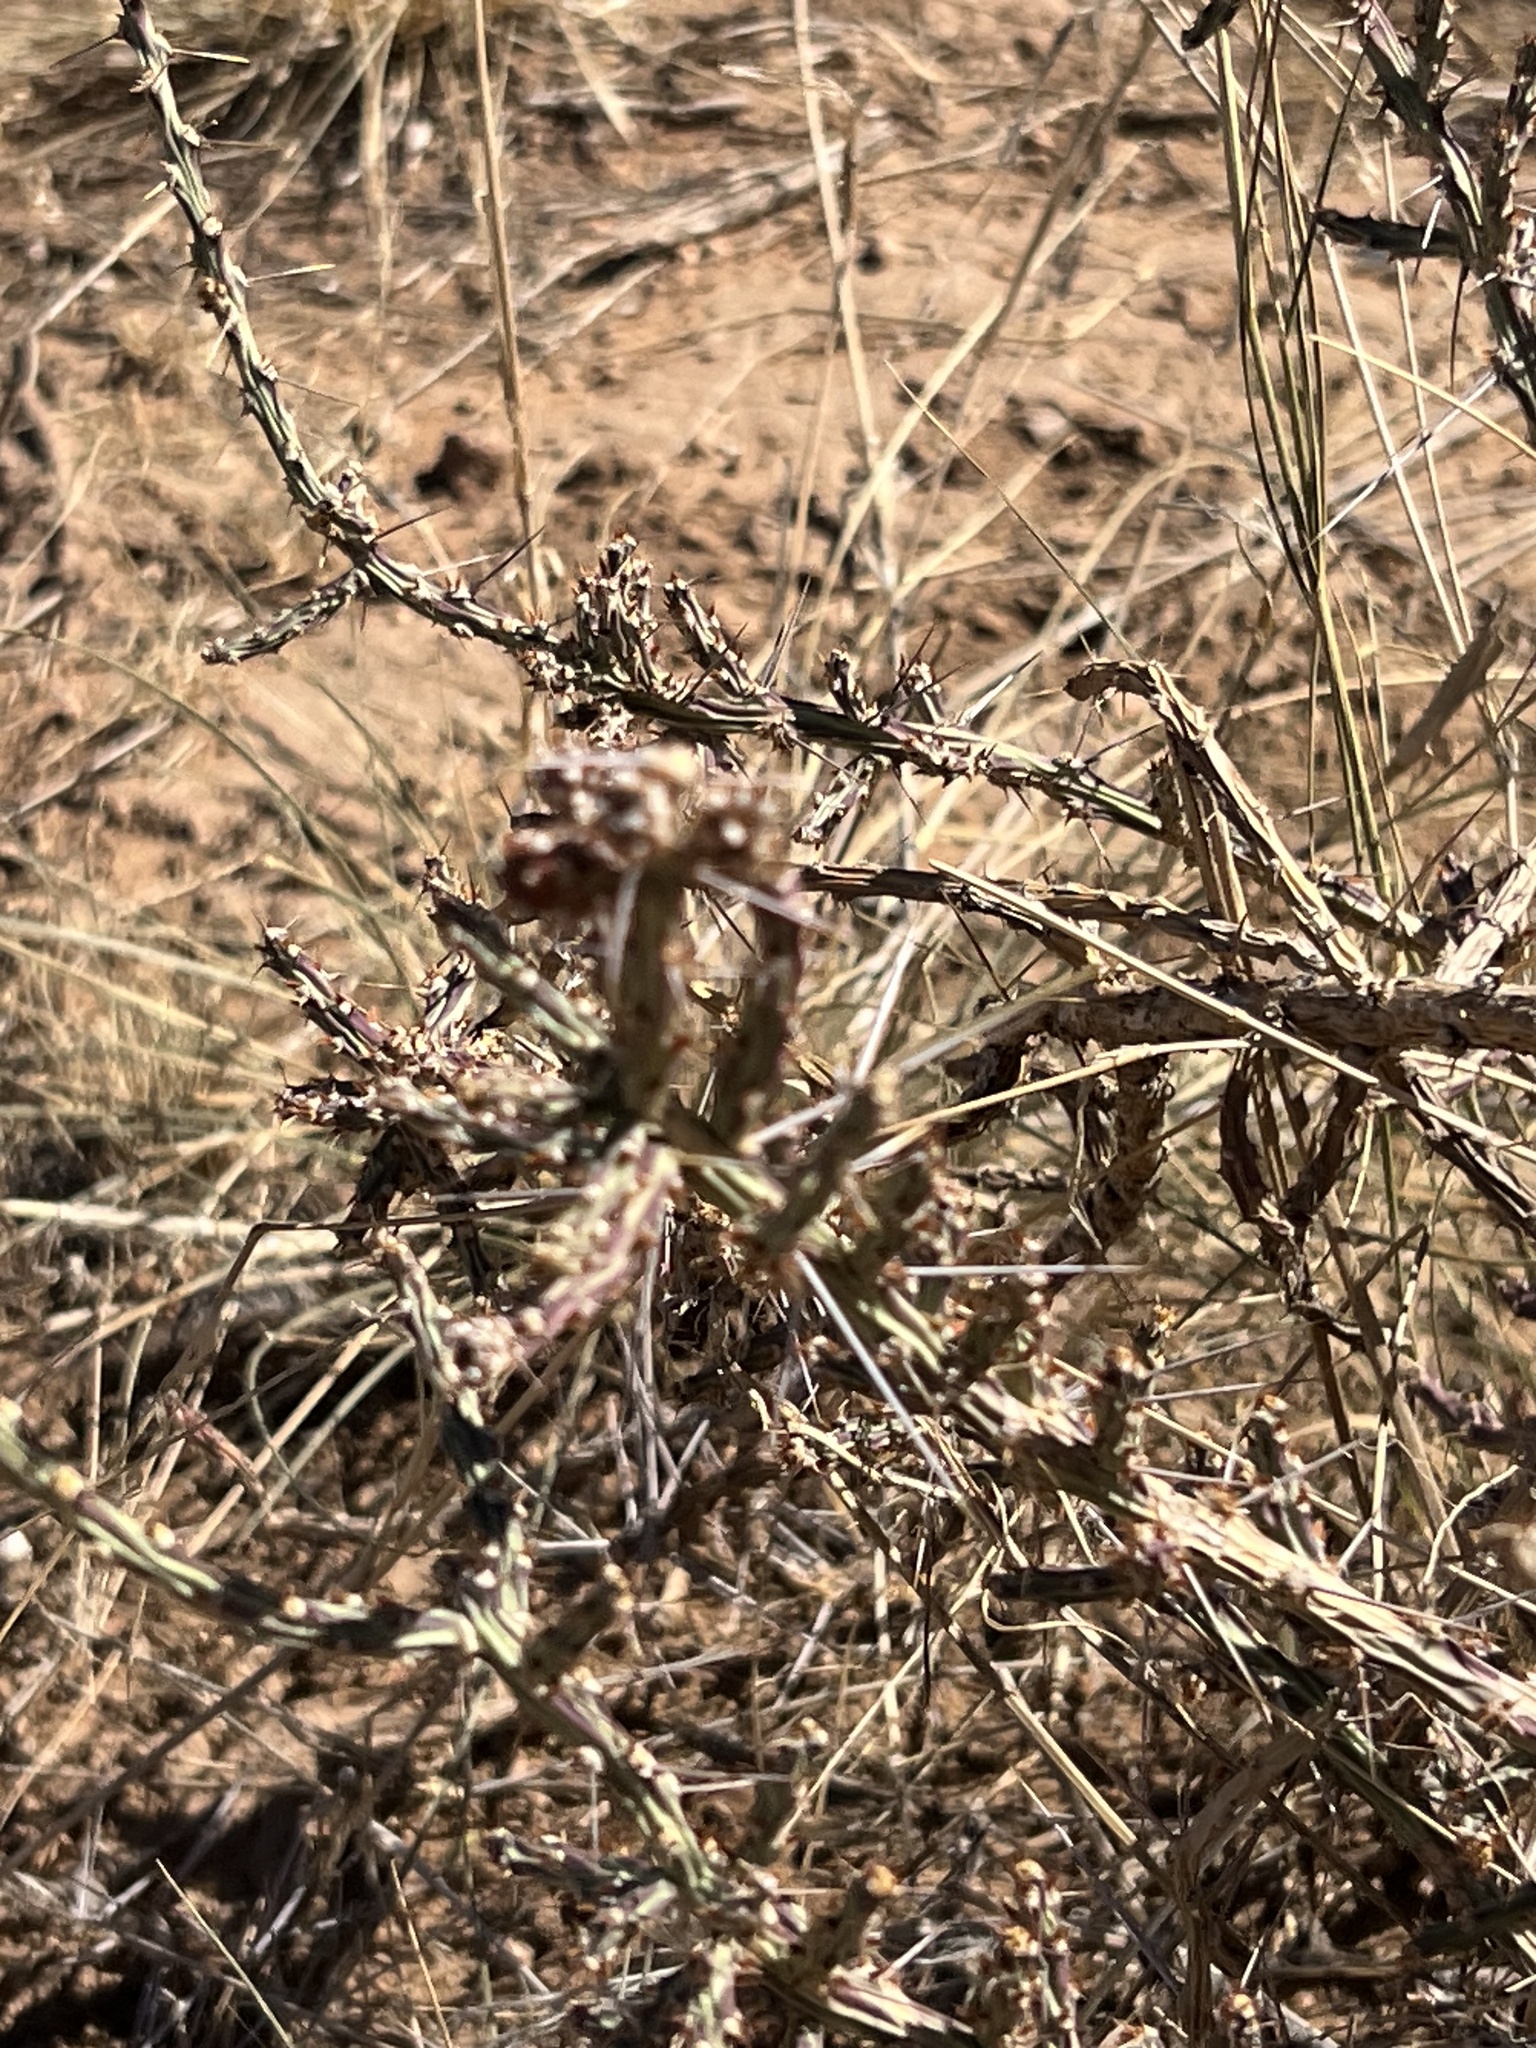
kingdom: Plantae
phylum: Tracheophyta
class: Magnoliopsida
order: Caryophyllales
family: Cactaceae
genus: Cylindropuntia
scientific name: Cylindropuntia leptocaulis
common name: Christmas cactus
